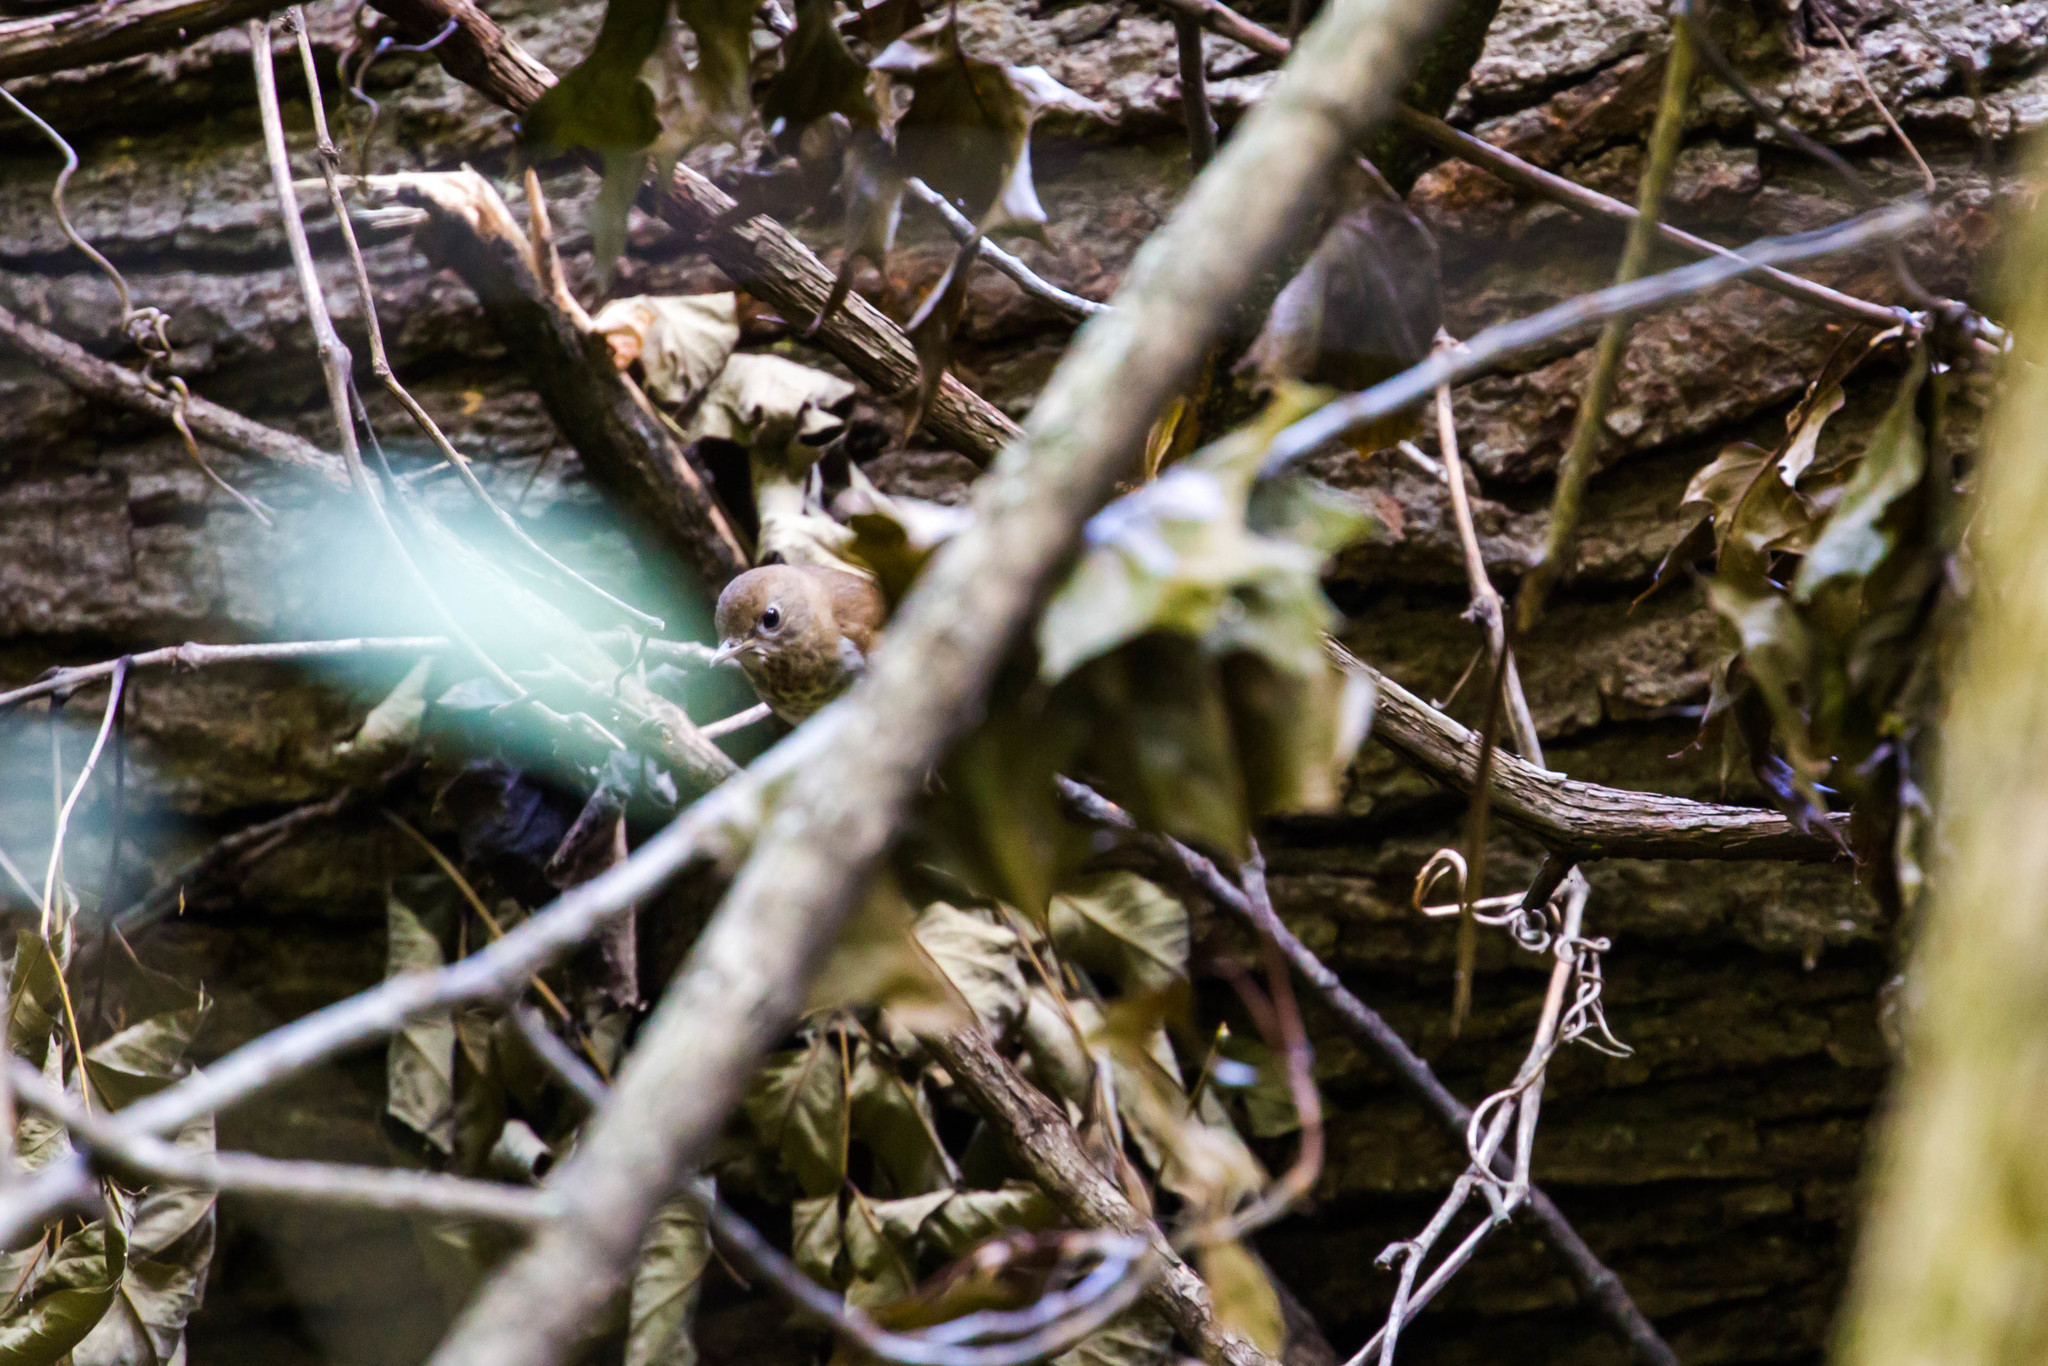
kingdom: Animalia
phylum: Chordata
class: Aves
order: Passeriformes
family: Turdidae
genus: Catharus
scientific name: Catharus fuscescens
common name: Veery
